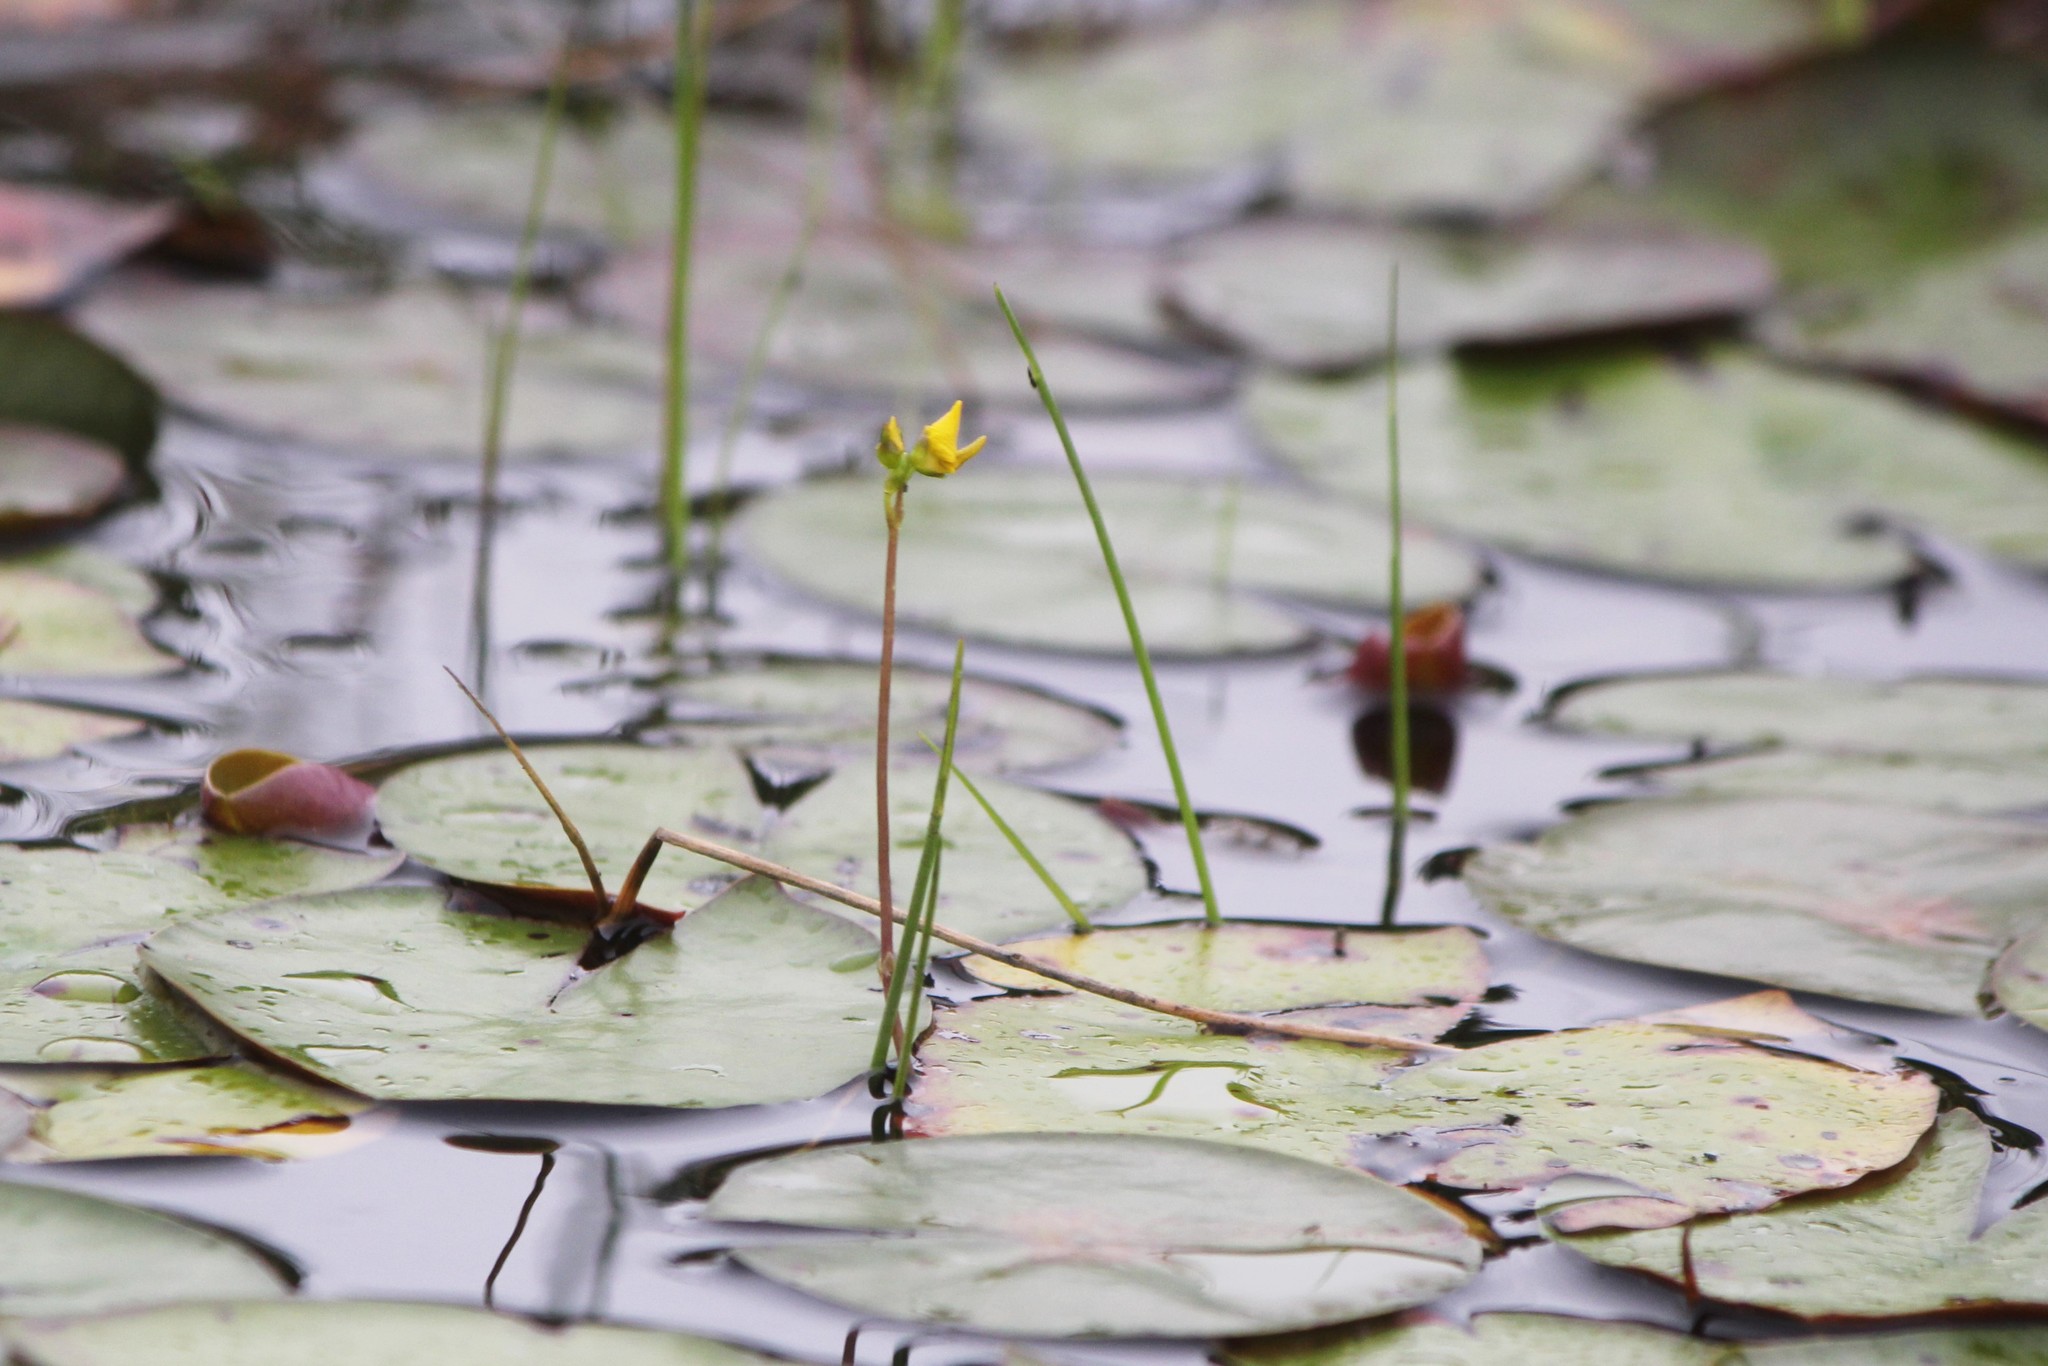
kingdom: Plantae
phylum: Tracheophyta
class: Magnoliopsida
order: Lamiales
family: Lentibulariaceae
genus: Utricularia
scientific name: Utricularia macrorhiza
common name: Common bladderwort
